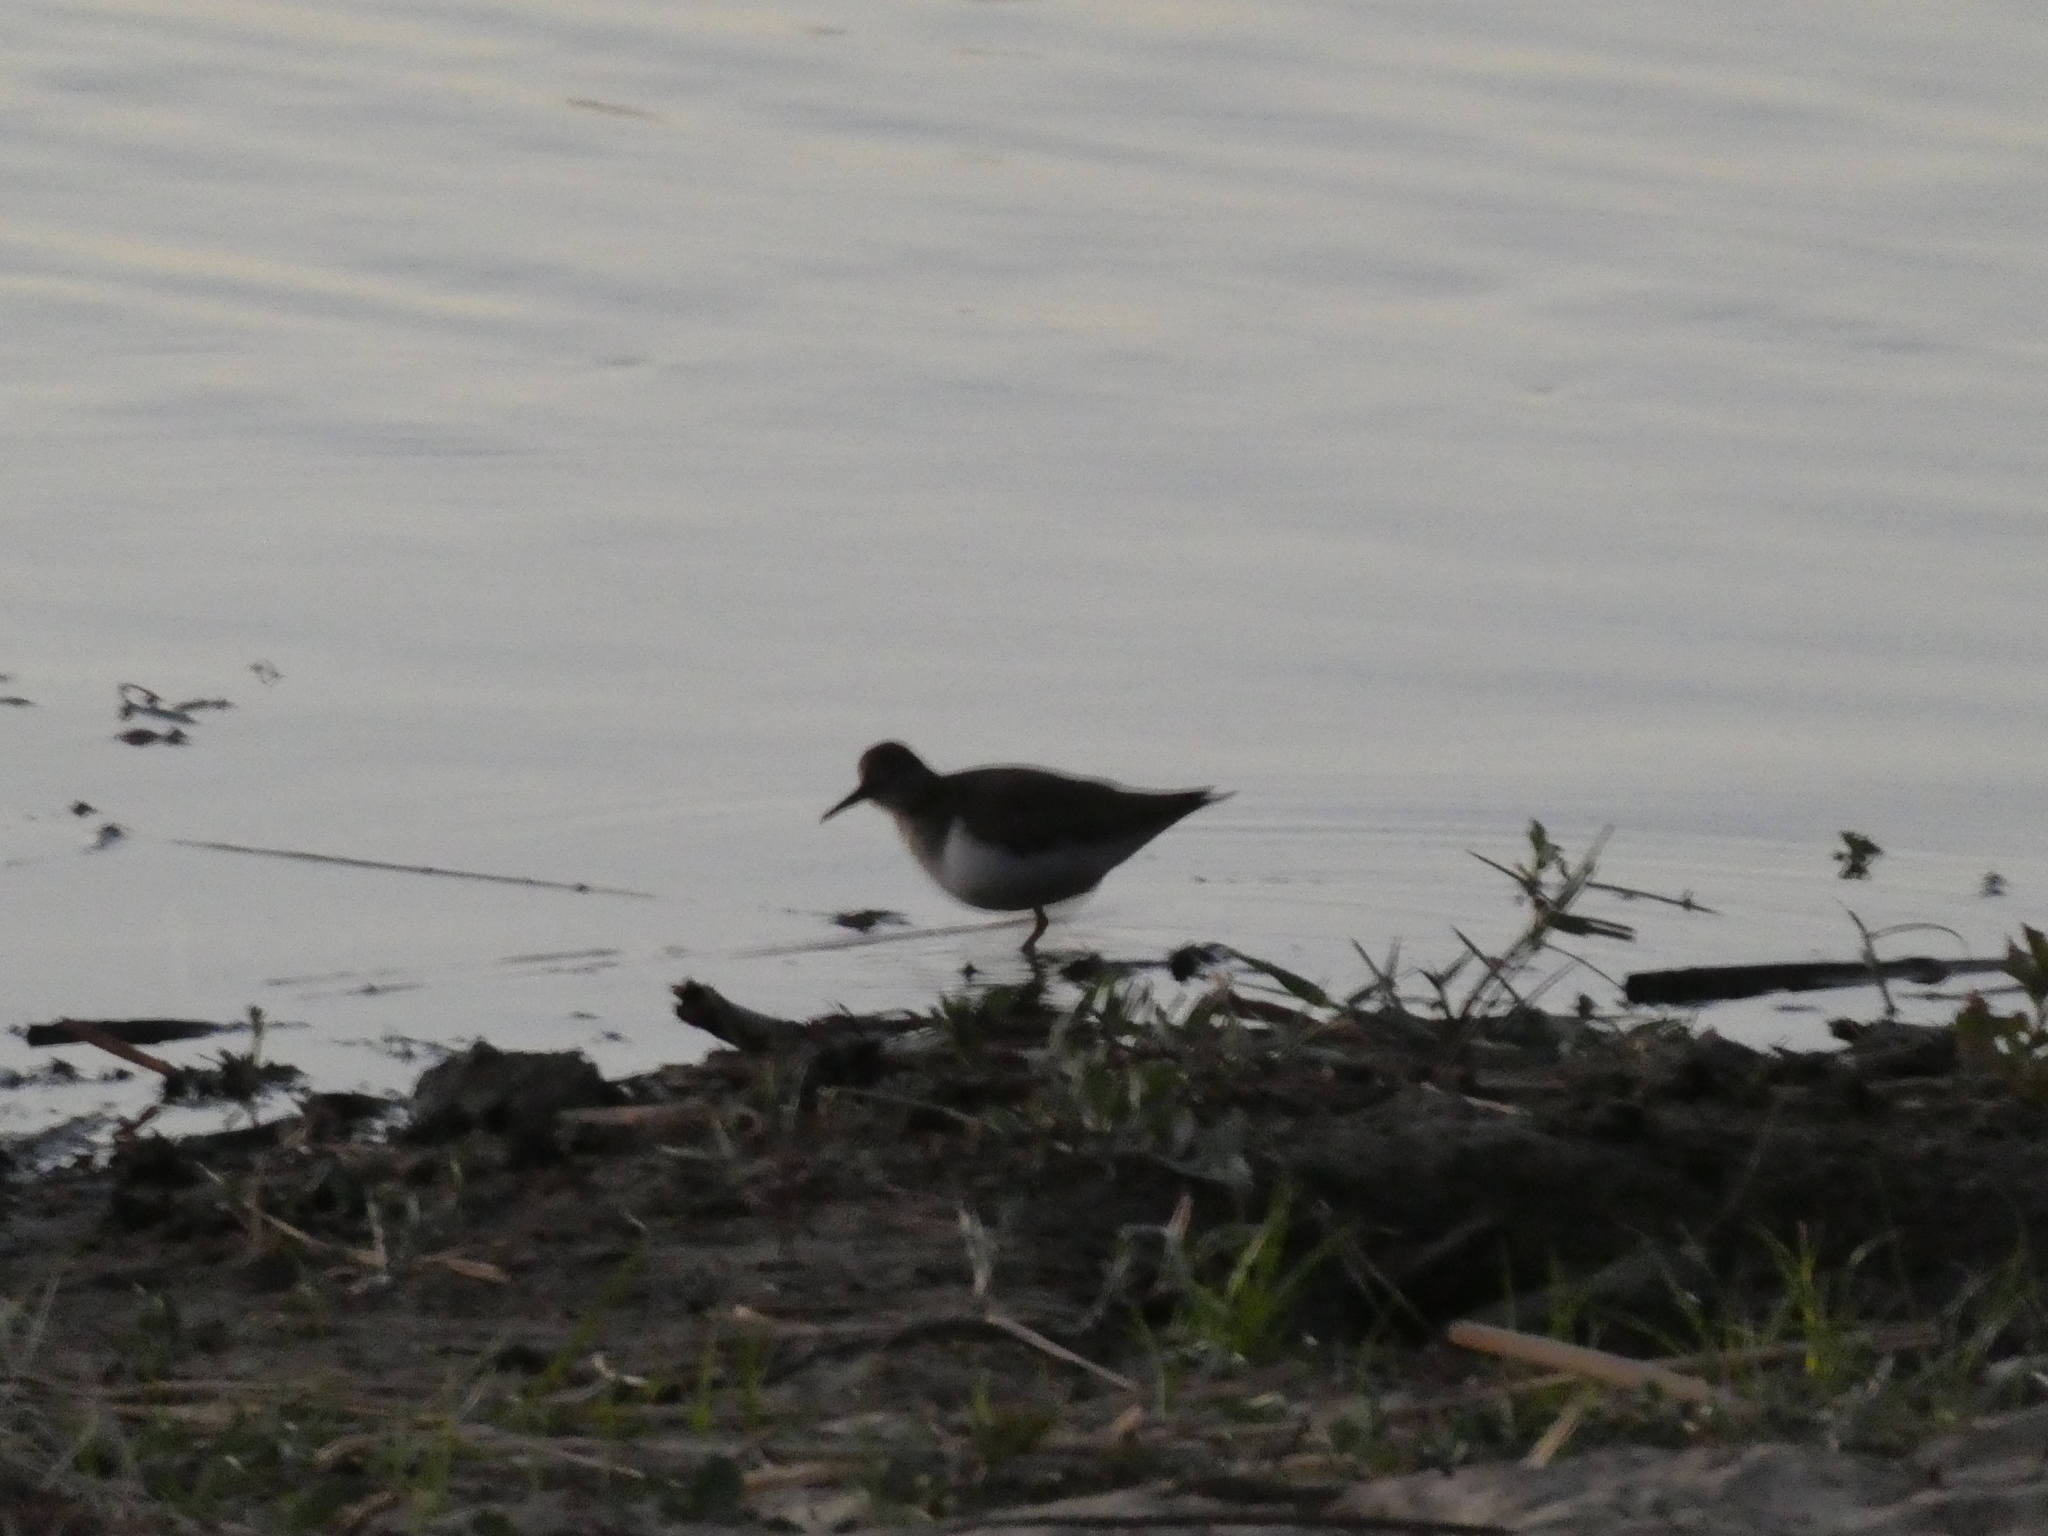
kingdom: Animalia
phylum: Chordata
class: Aves
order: Charadriiformes
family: Scolopacidae
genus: Actitis
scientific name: Actitis hypoleucos
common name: Common sandpiper
